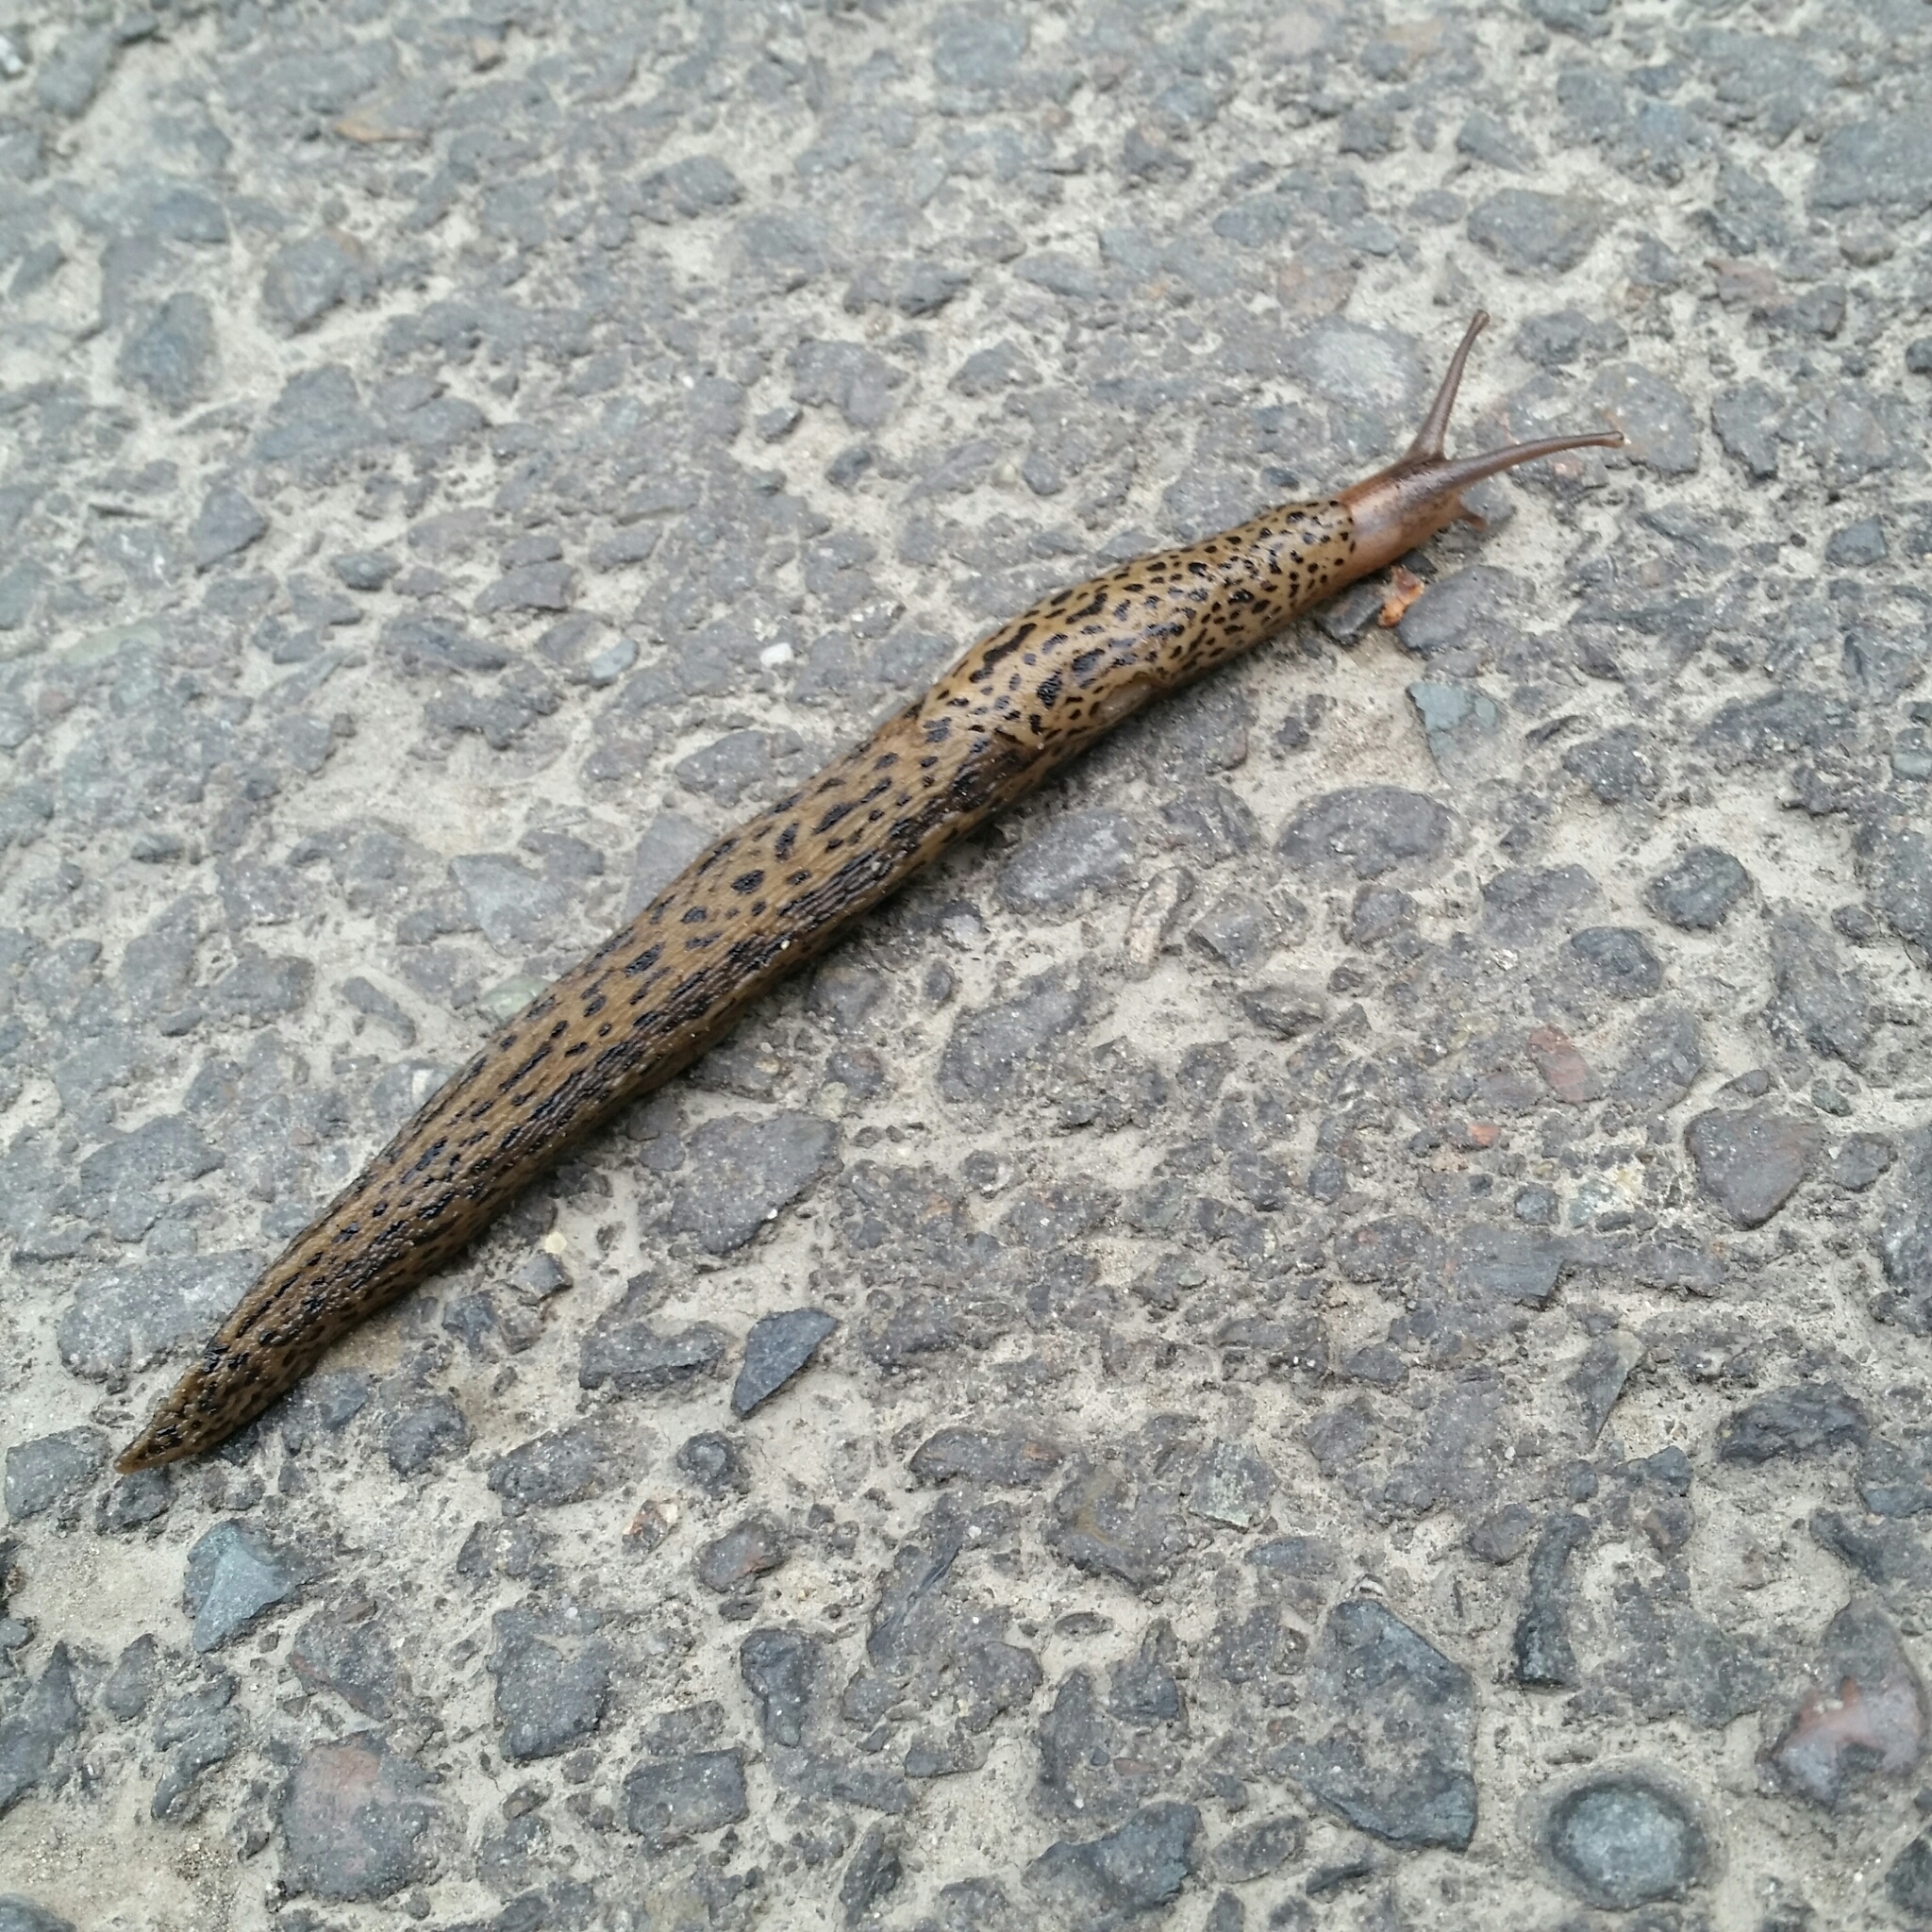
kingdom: Animalia
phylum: Mollusca
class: Gastropoda
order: Stylommatophora
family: Limacidae
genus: Limax
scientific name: Limax maximus
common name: Great grey slug
